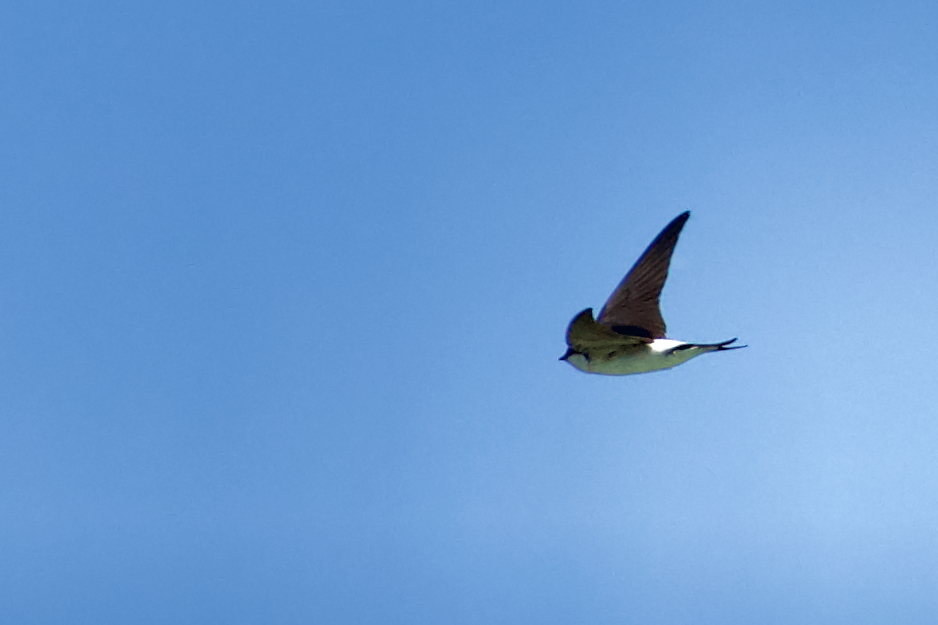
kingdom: Animalia
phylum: Chordata
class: Aves
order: Passeriformes
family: Hirundinidae
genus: Delichon
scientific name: Delichon urbicum
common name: Common house martin
